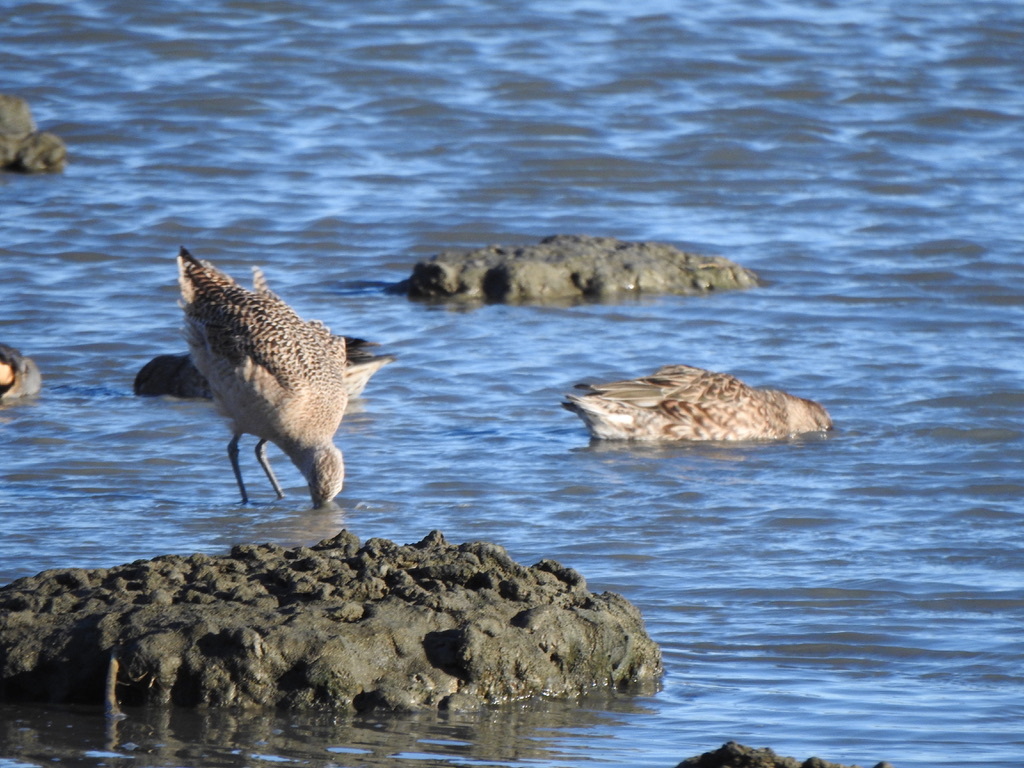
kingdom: Animalia
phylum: Chordata
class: Aves
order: Charadriiformes
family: Scolopacidae
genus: Limosa
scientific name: Limosa fedoa
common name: Marbled godwit
